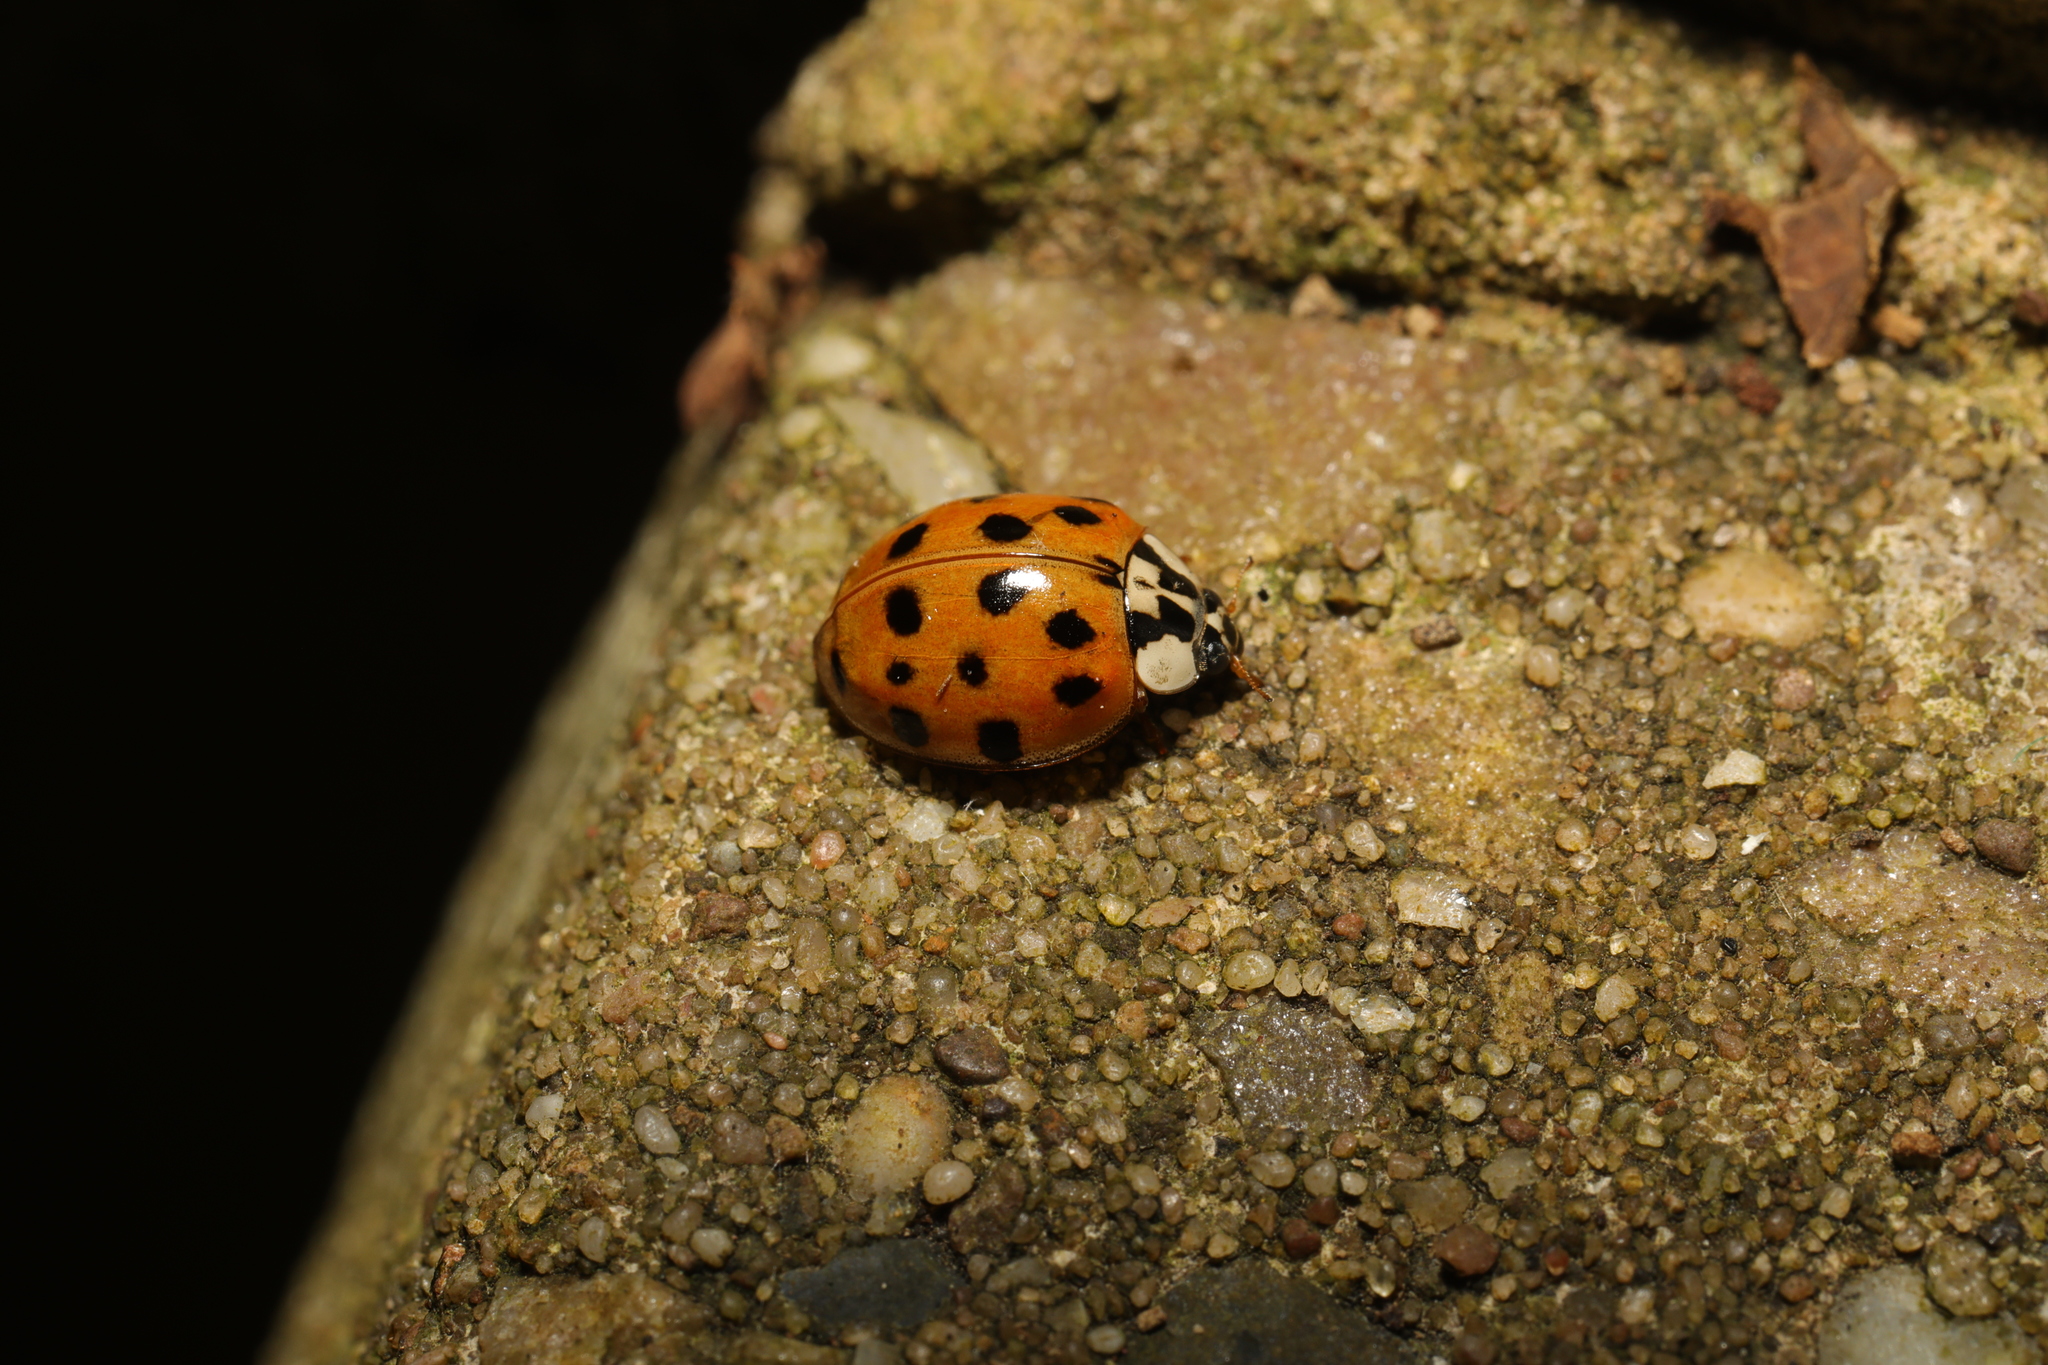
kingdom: Animalia
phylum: Arthropoda
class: Insecta
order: Coleoptera
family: Coccinellidae
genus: Harmonia
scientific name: Harmonia axyridis
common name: Harlequin ladybird
